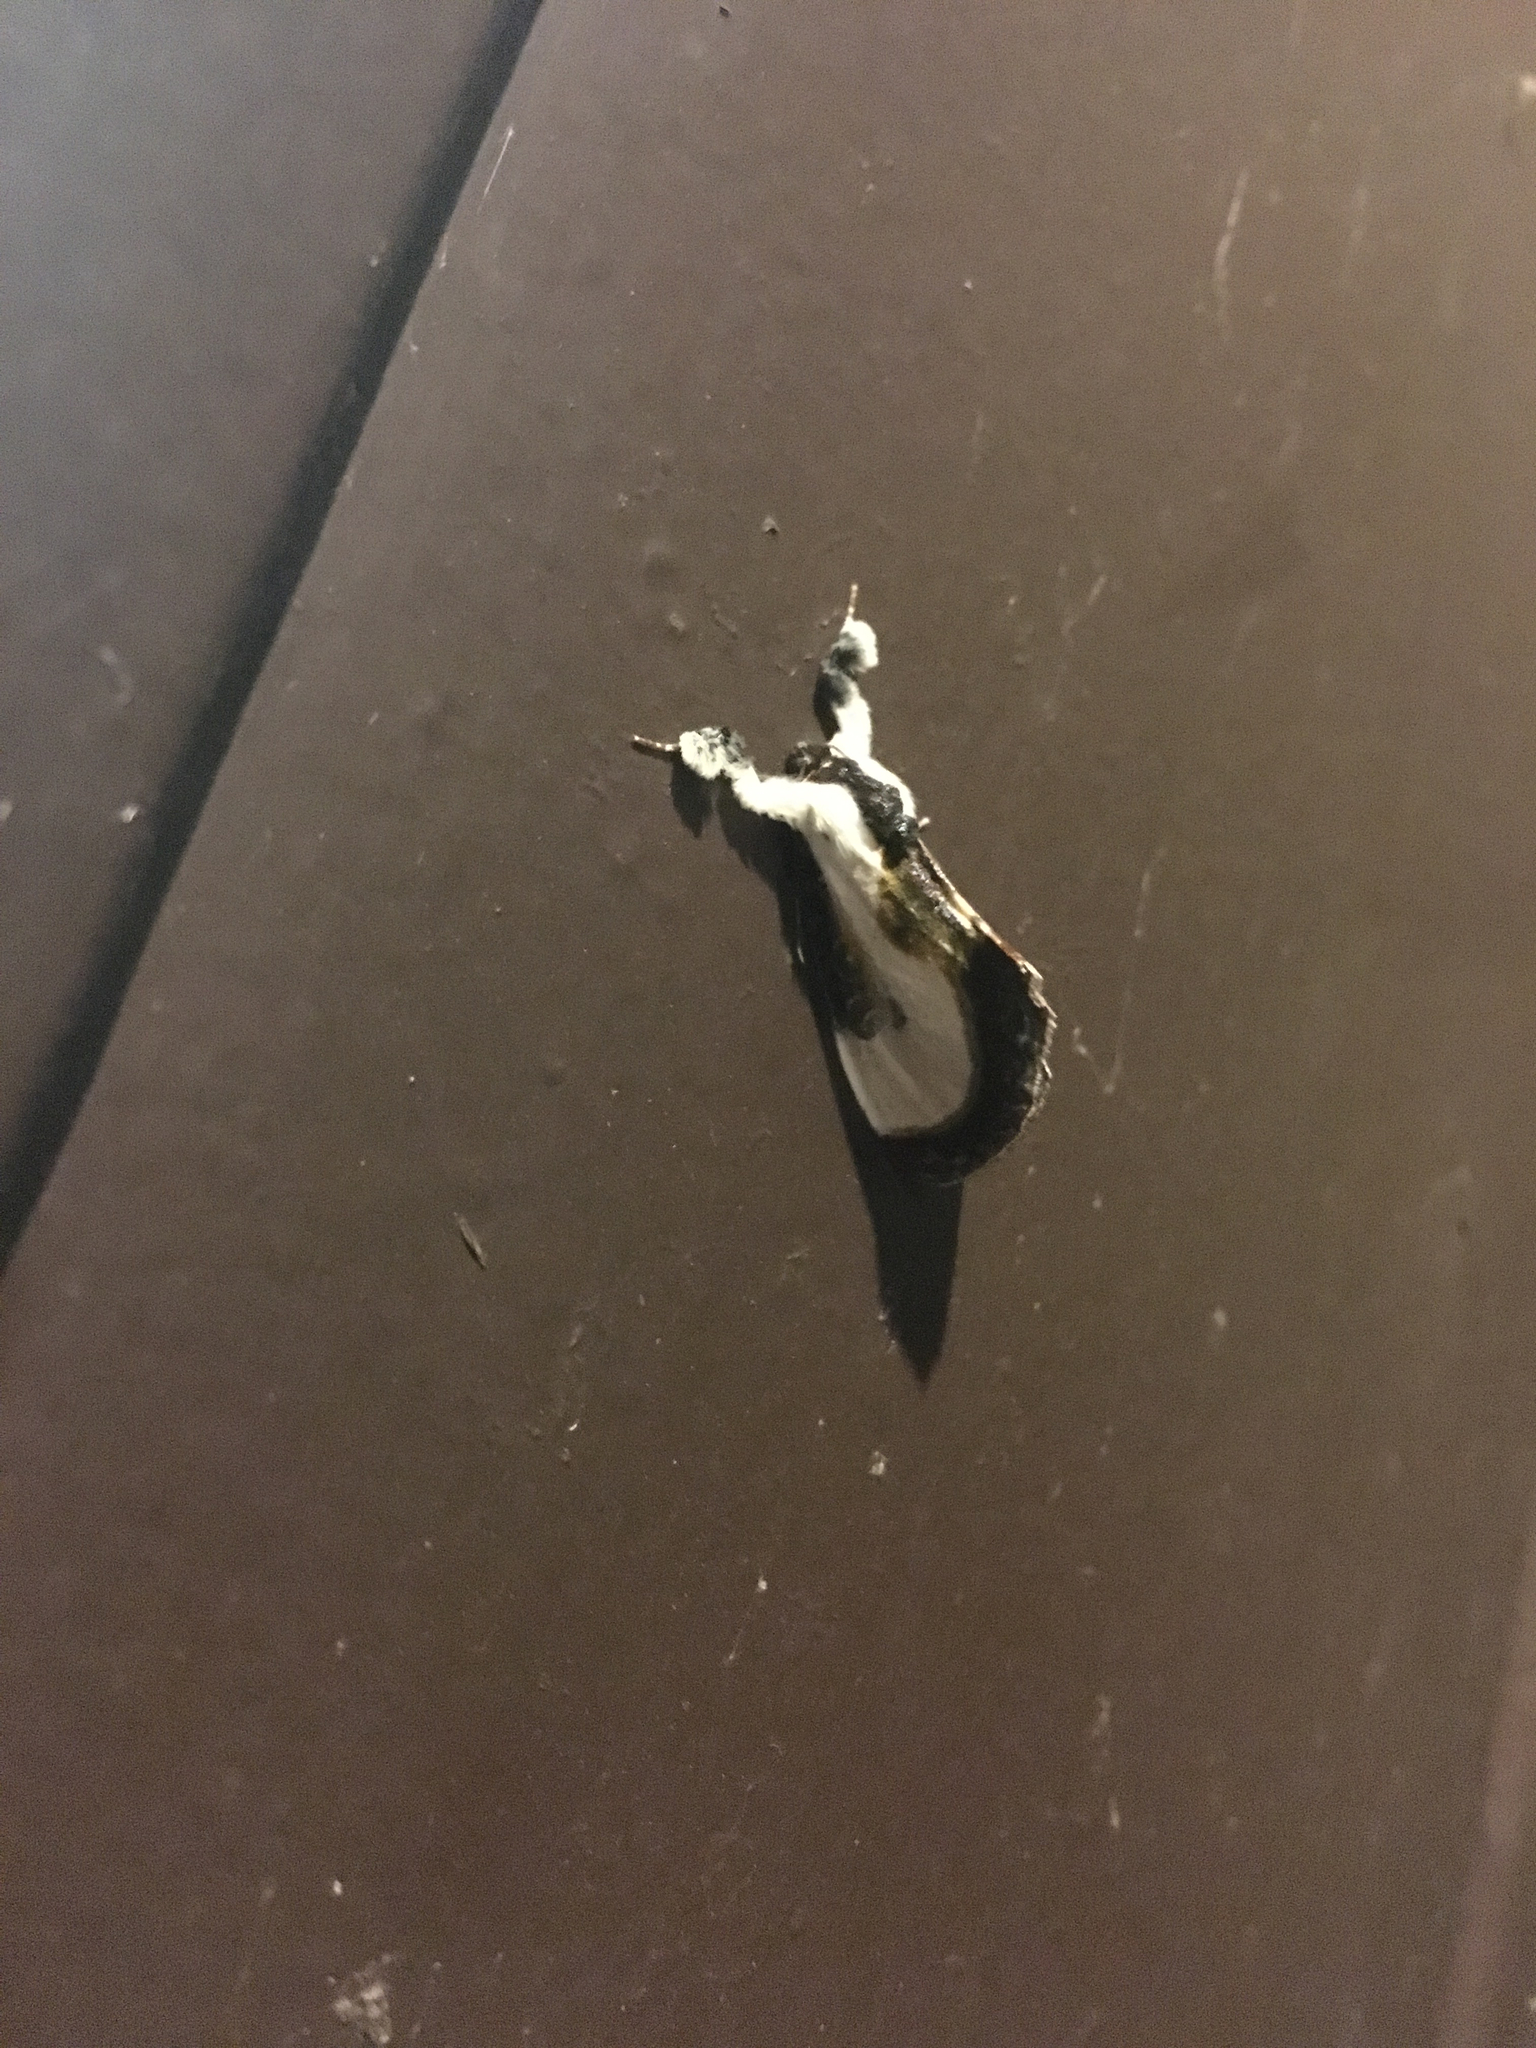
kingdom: Animalia
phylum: Arthropoda
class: Insecta
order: Lepidoptera
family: Noctuidae
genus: Eudryas
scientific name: Eudryas grata
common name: Beautiful wood-nymph
